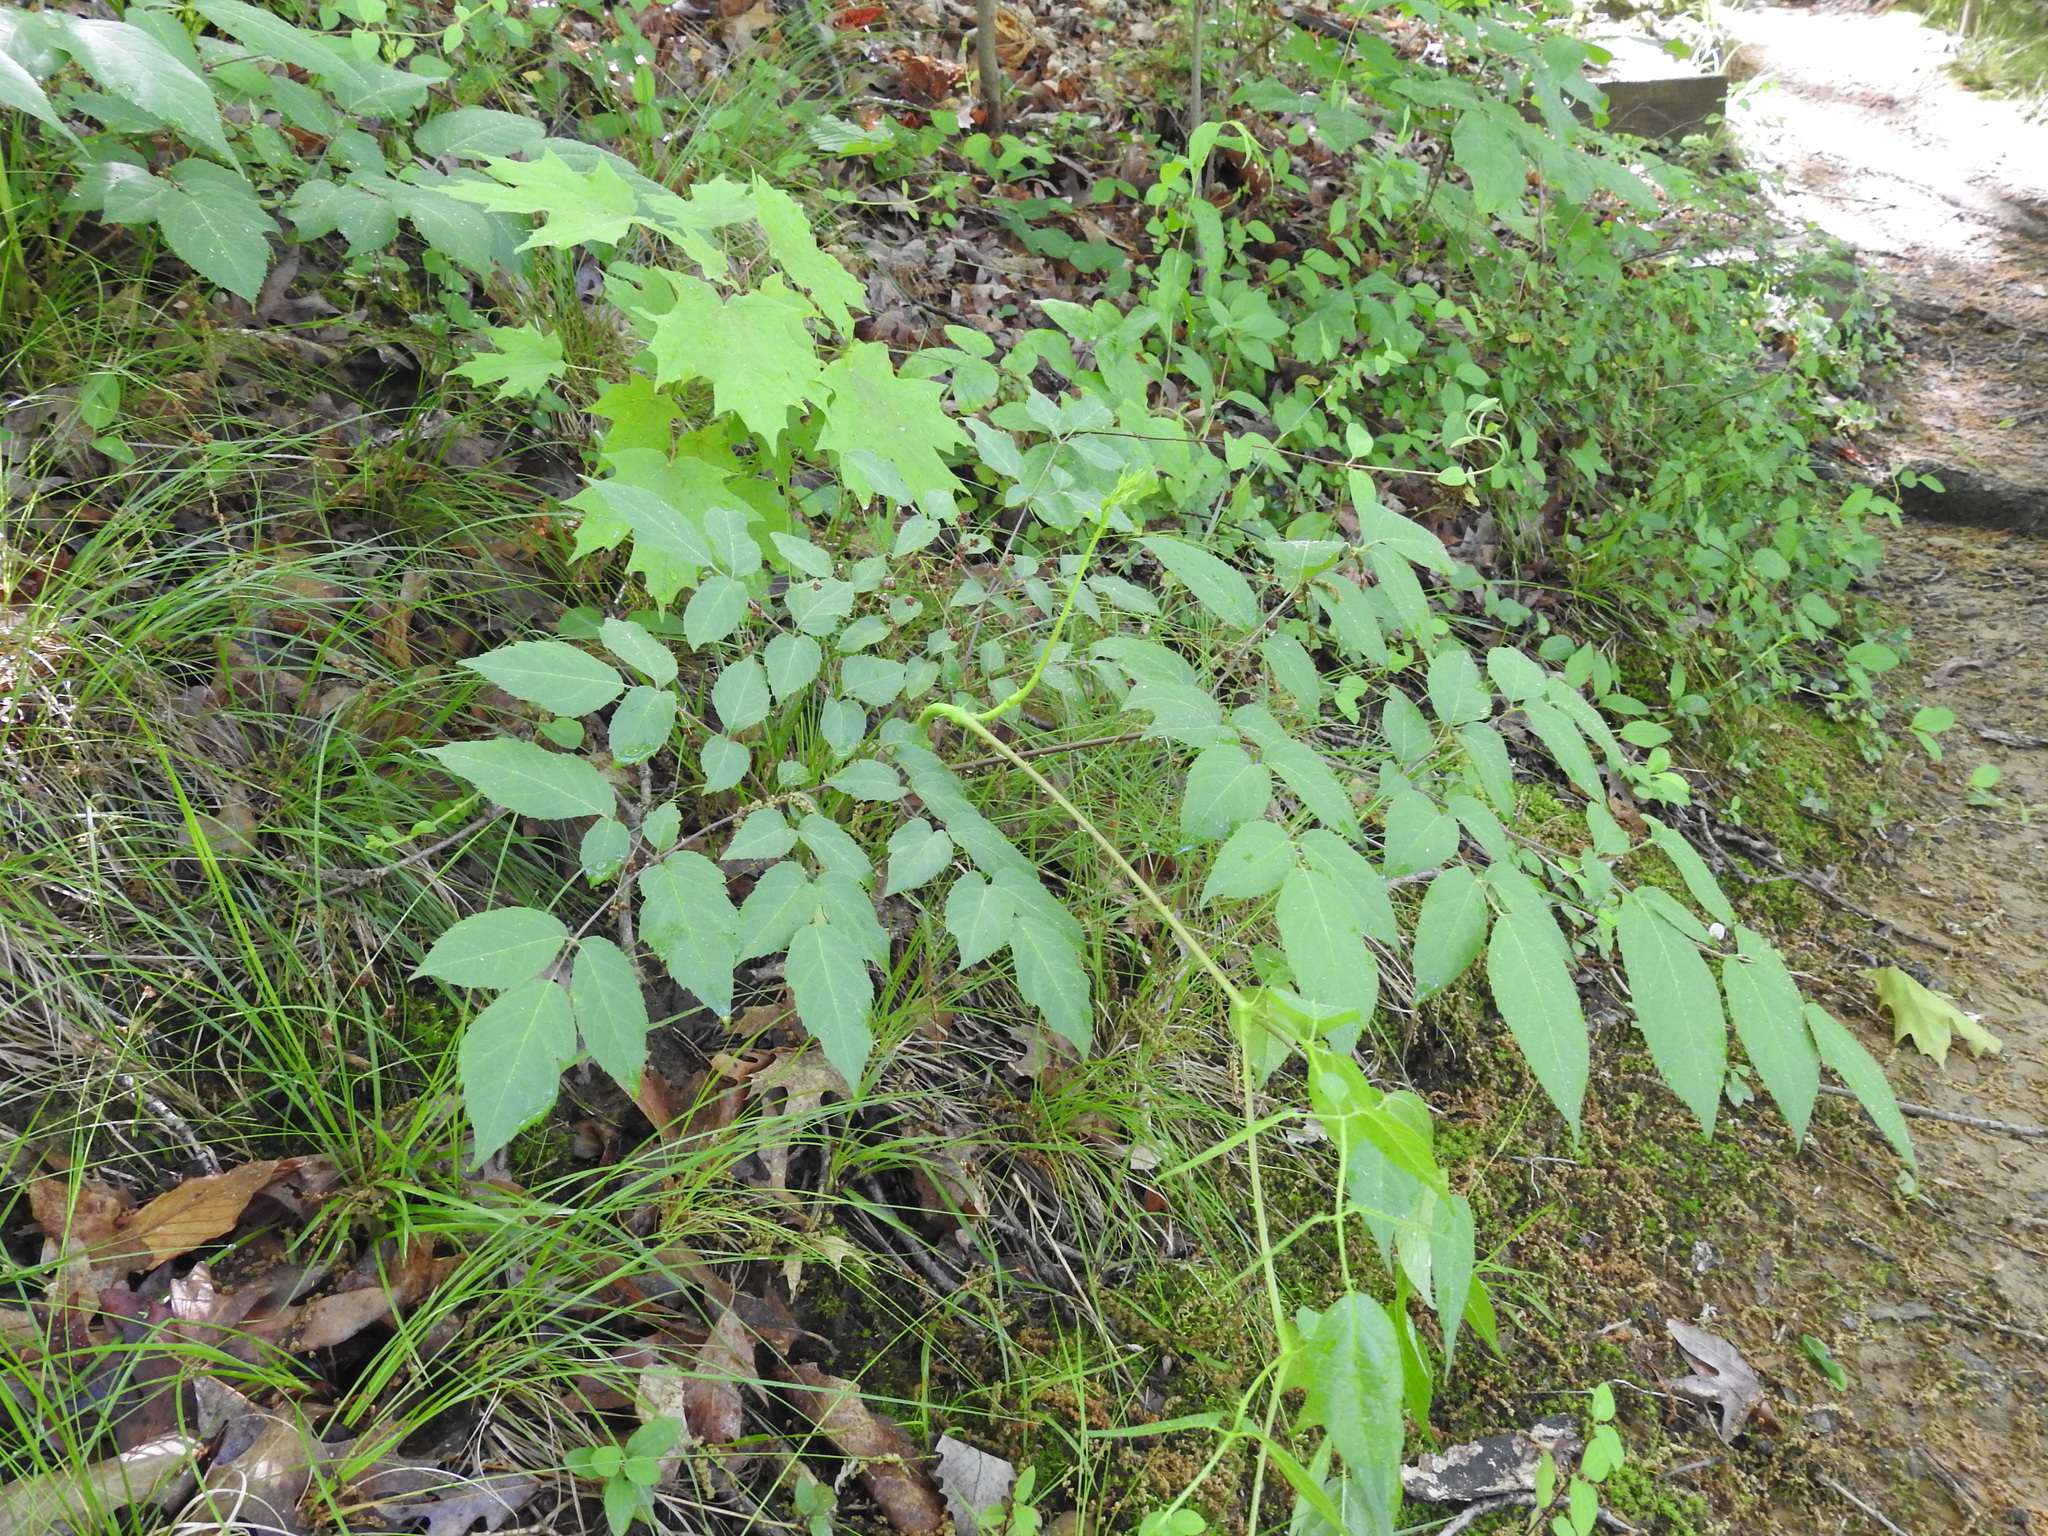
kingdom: Plantae
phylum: Tracheophyta
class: Magnoliopsida
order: Apiales
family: Araliaceae
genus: Aralia
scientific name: Aralia spinosa
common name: Hercules'-club
